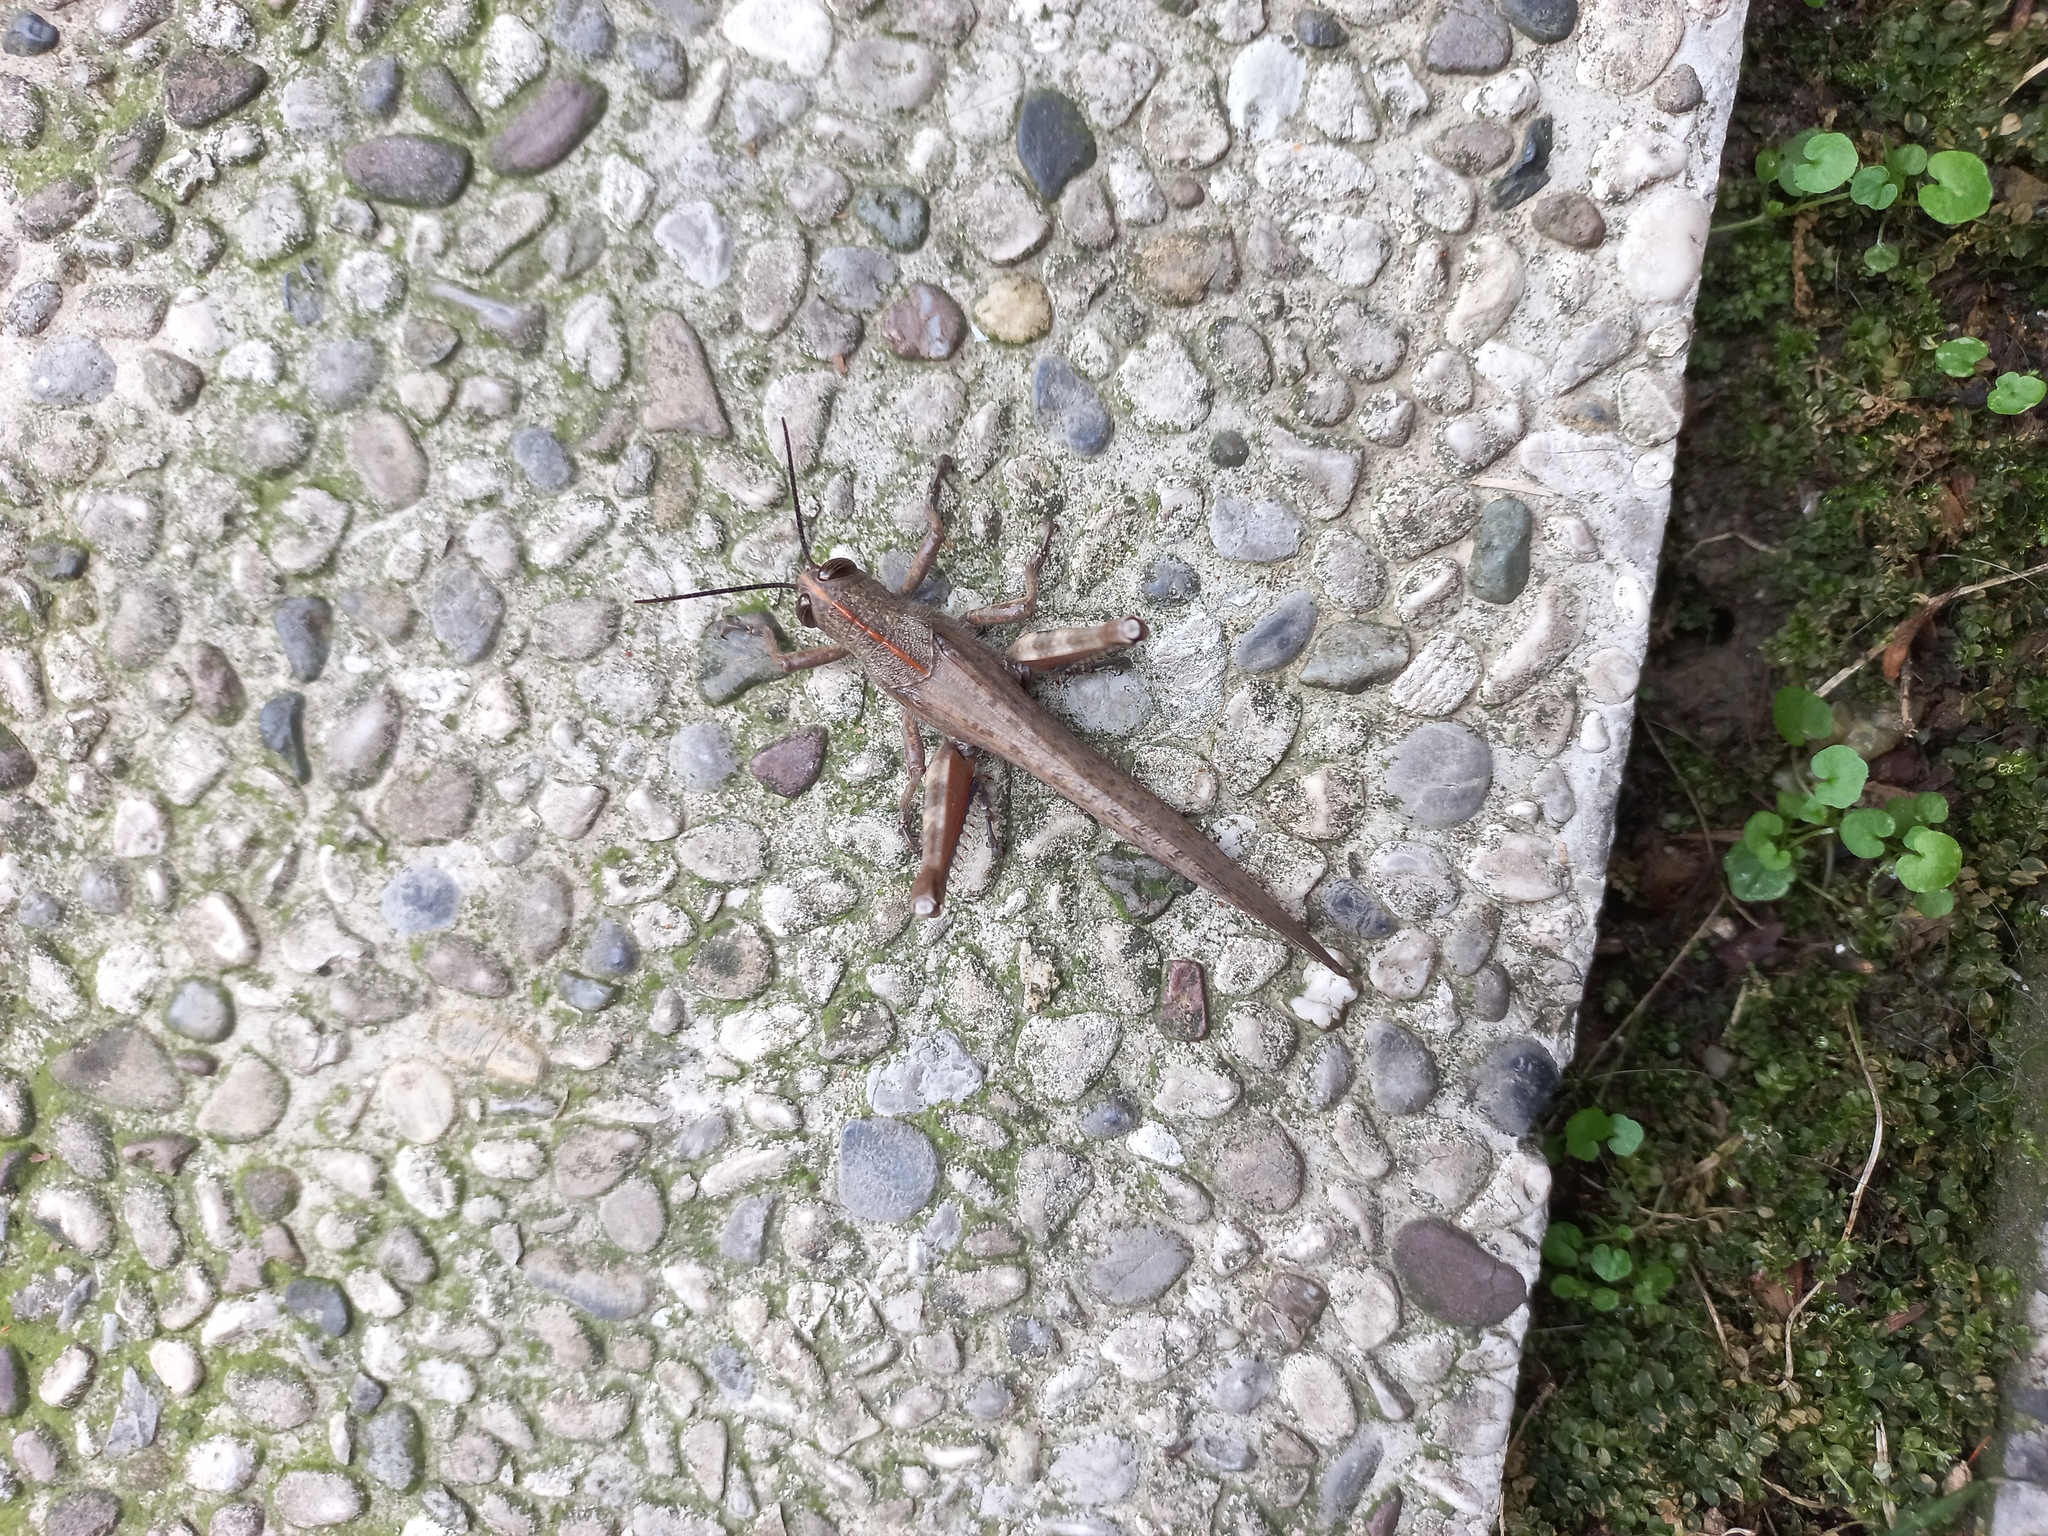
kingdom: Animalia
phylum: Arthropoda
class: Insecta
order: Orthoptera
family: Acrididae
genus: Anacridium
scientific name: Anacridium aegyptium
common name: Egyptian grasshopper
